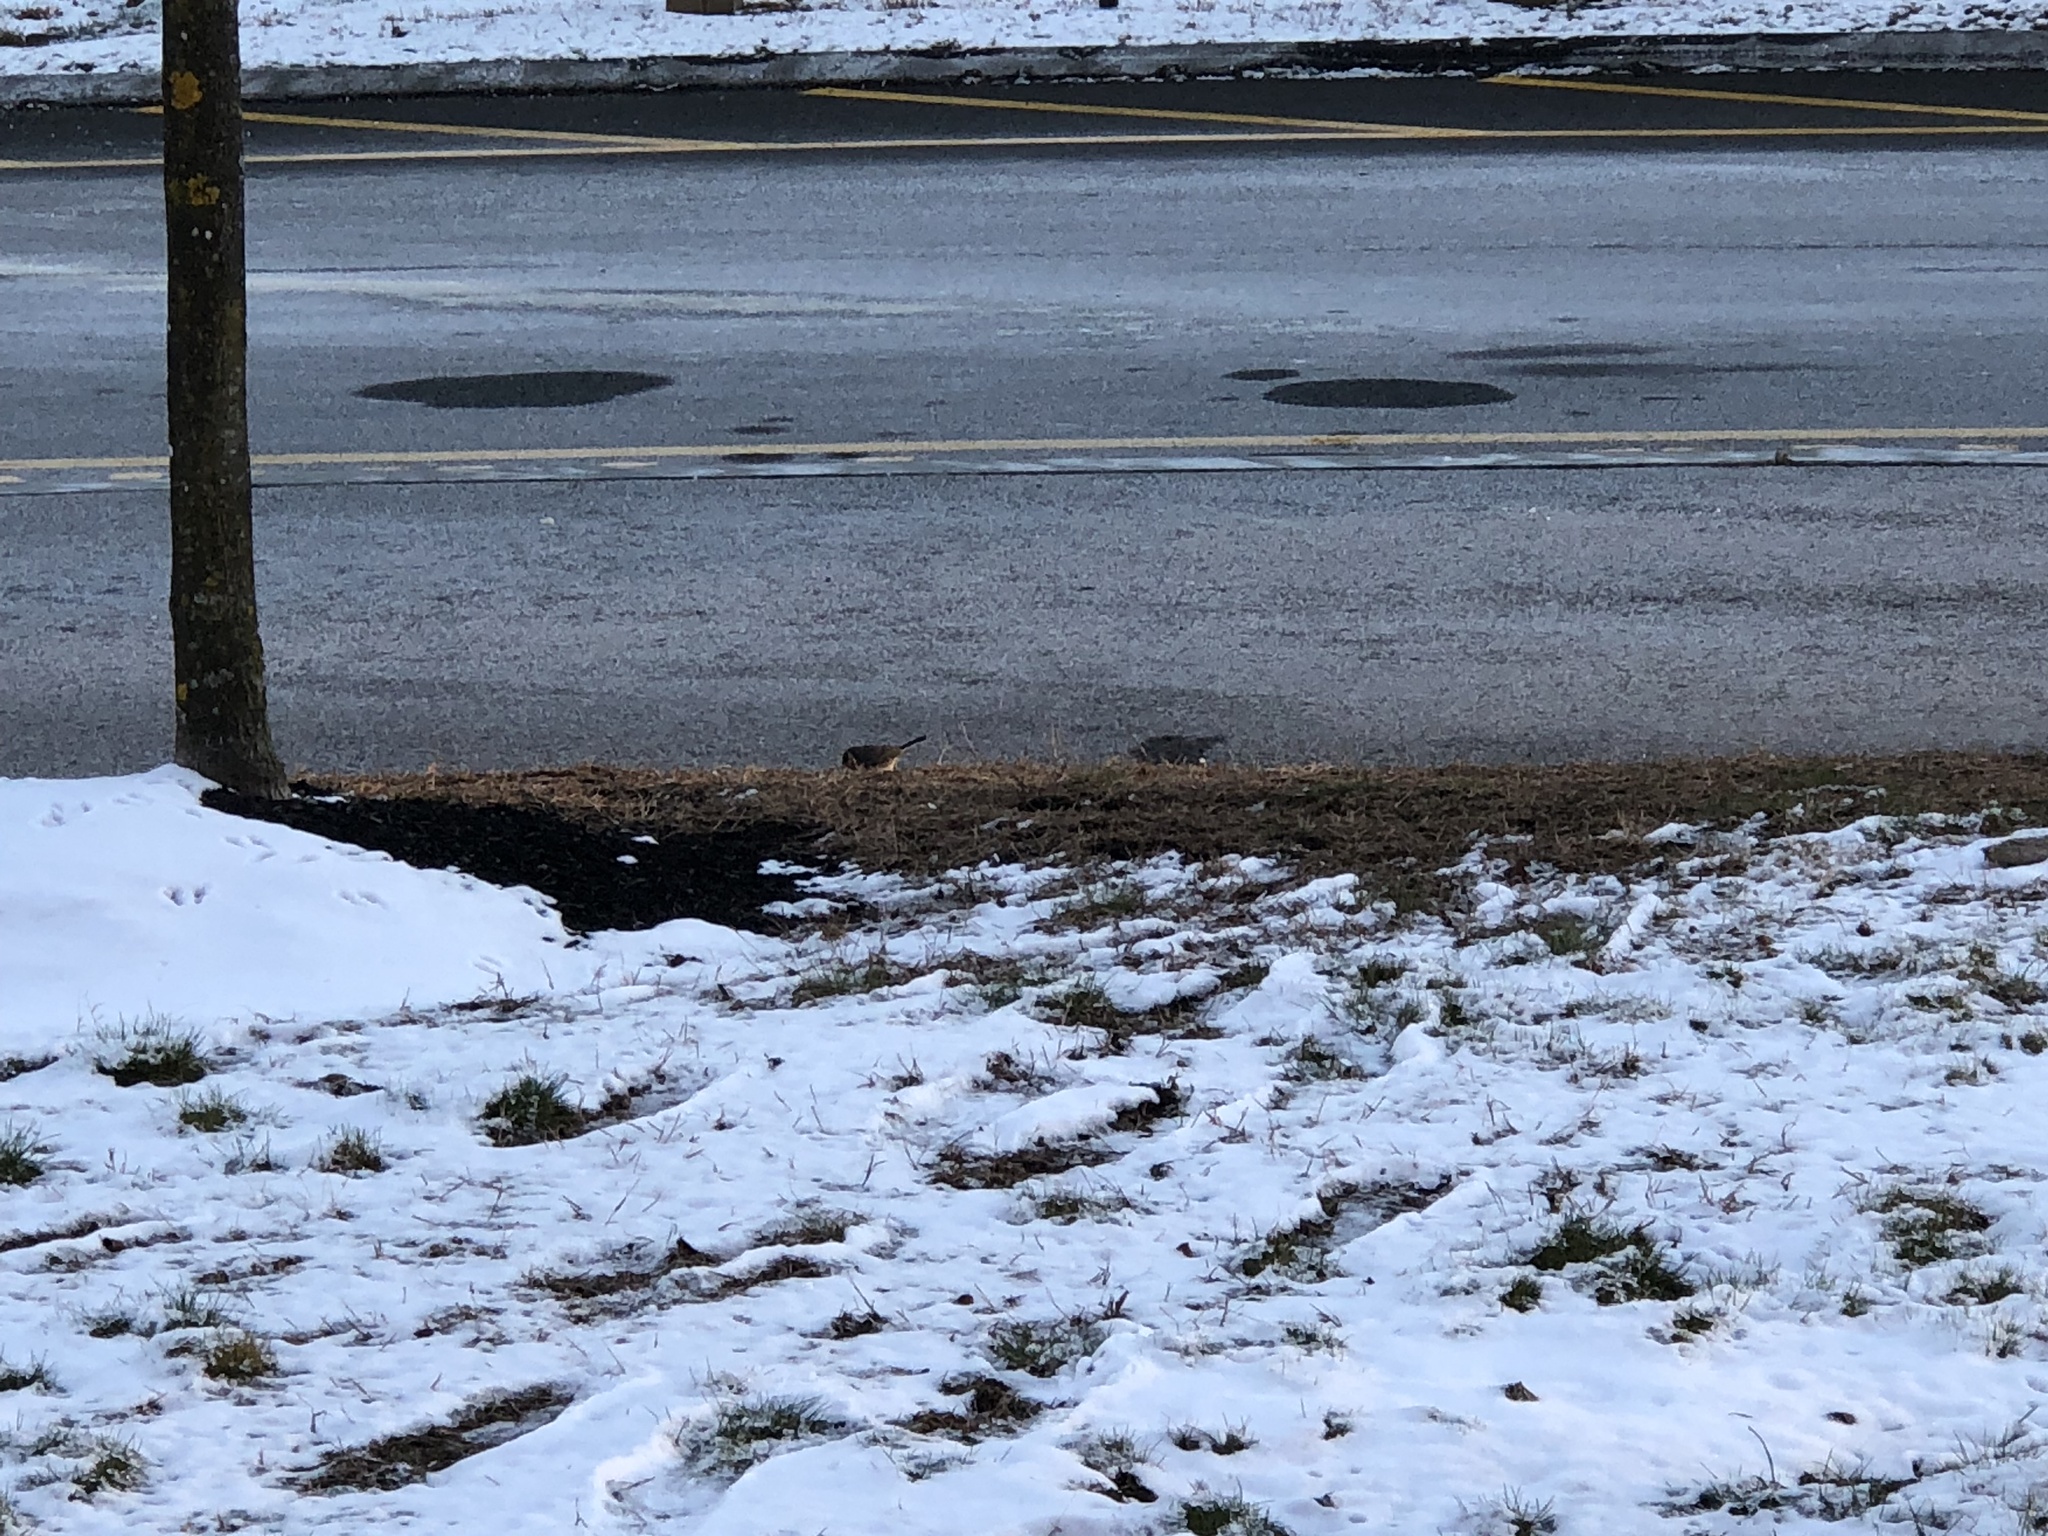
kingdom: Animalia
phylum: Chordata
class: Aves
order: Passeriformes
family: Passerellidae
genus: Junco
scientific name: Junco hyemalis
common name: Dark-eyed junco
